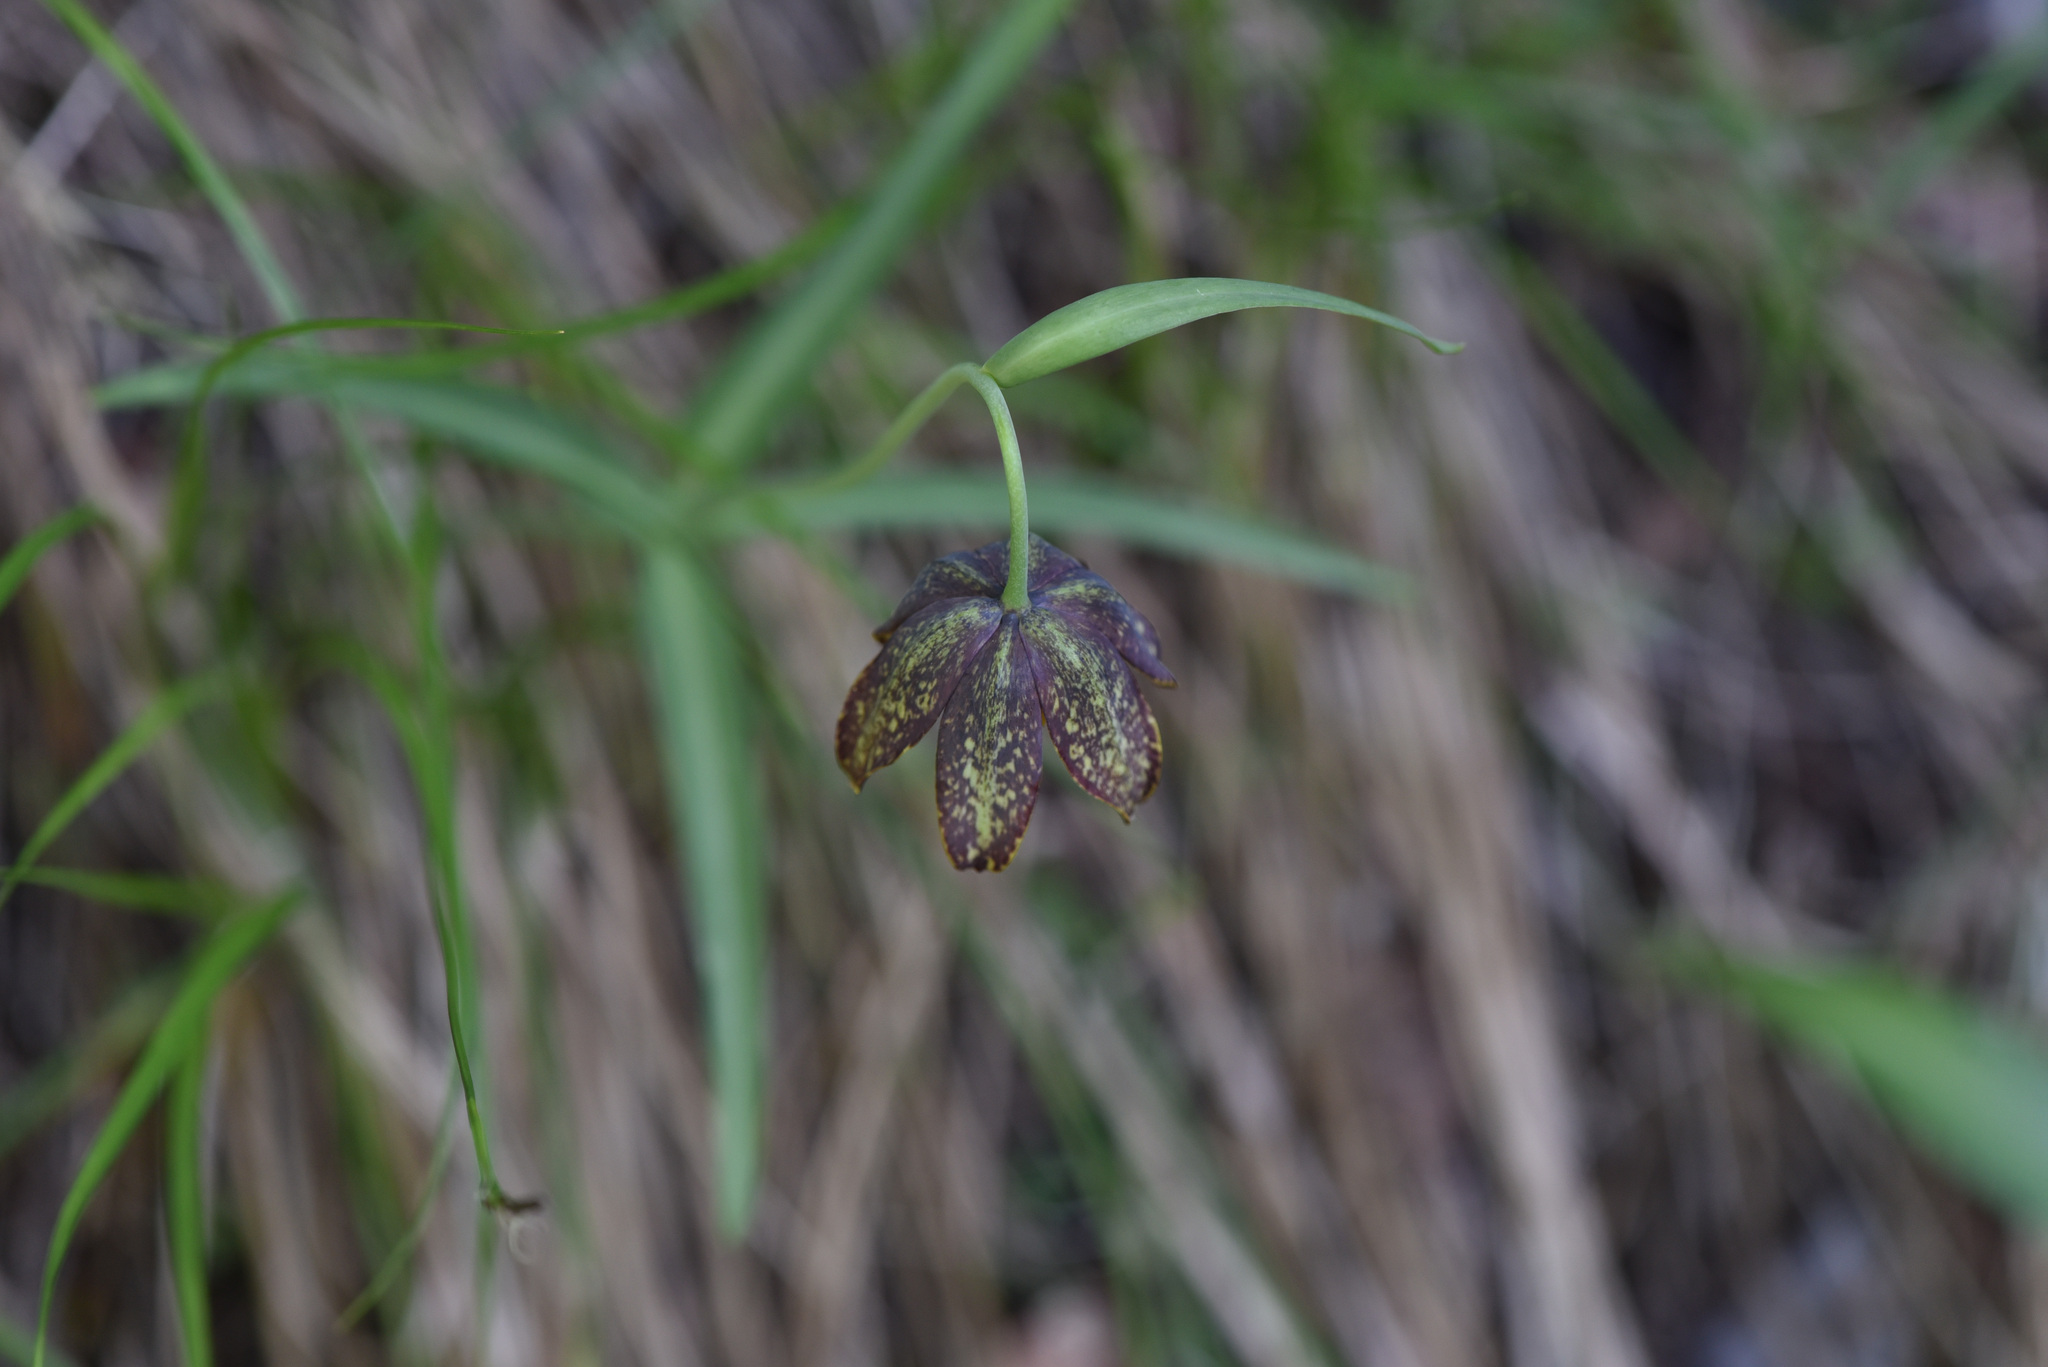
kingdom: Plantae
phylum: Tracheophyta
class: Liliopsida
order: Liliales
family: Liliaceae
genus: Fritillaria
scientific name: Fritillaria affinis
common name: Ojai fritillary
